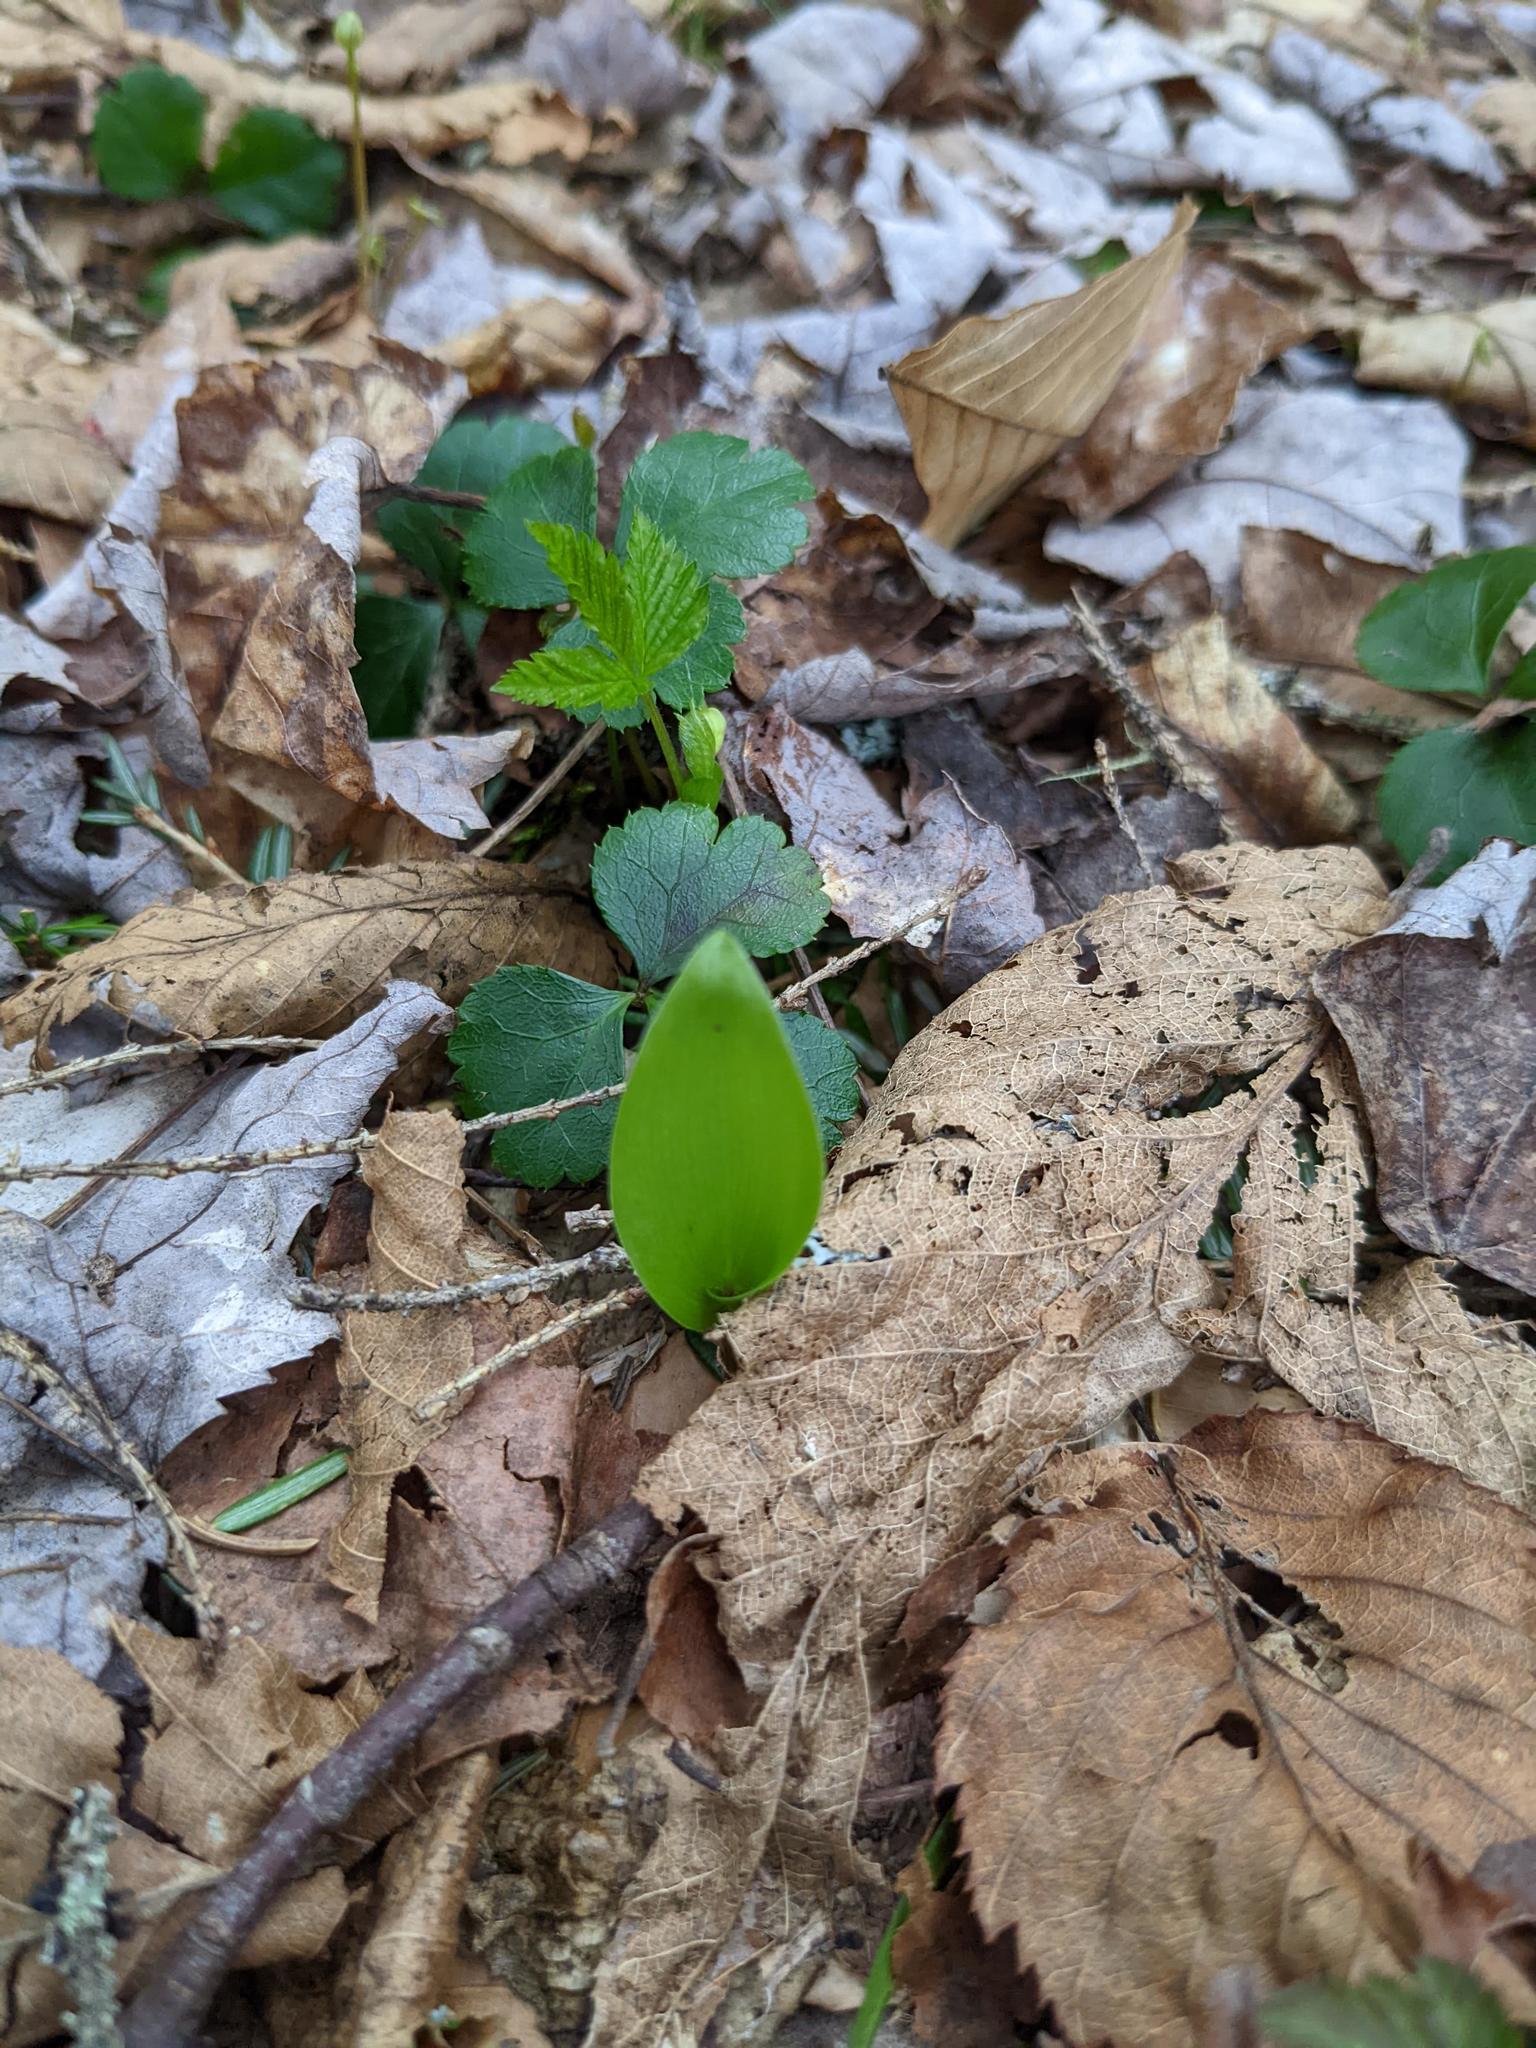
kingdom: Plantae
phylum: Tracheophyta
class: Liliopsida
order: Asparagales
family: Asparagaceae
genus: Maianthemum
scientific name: Maianthemum canadense
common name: False lily-of-the-valley
